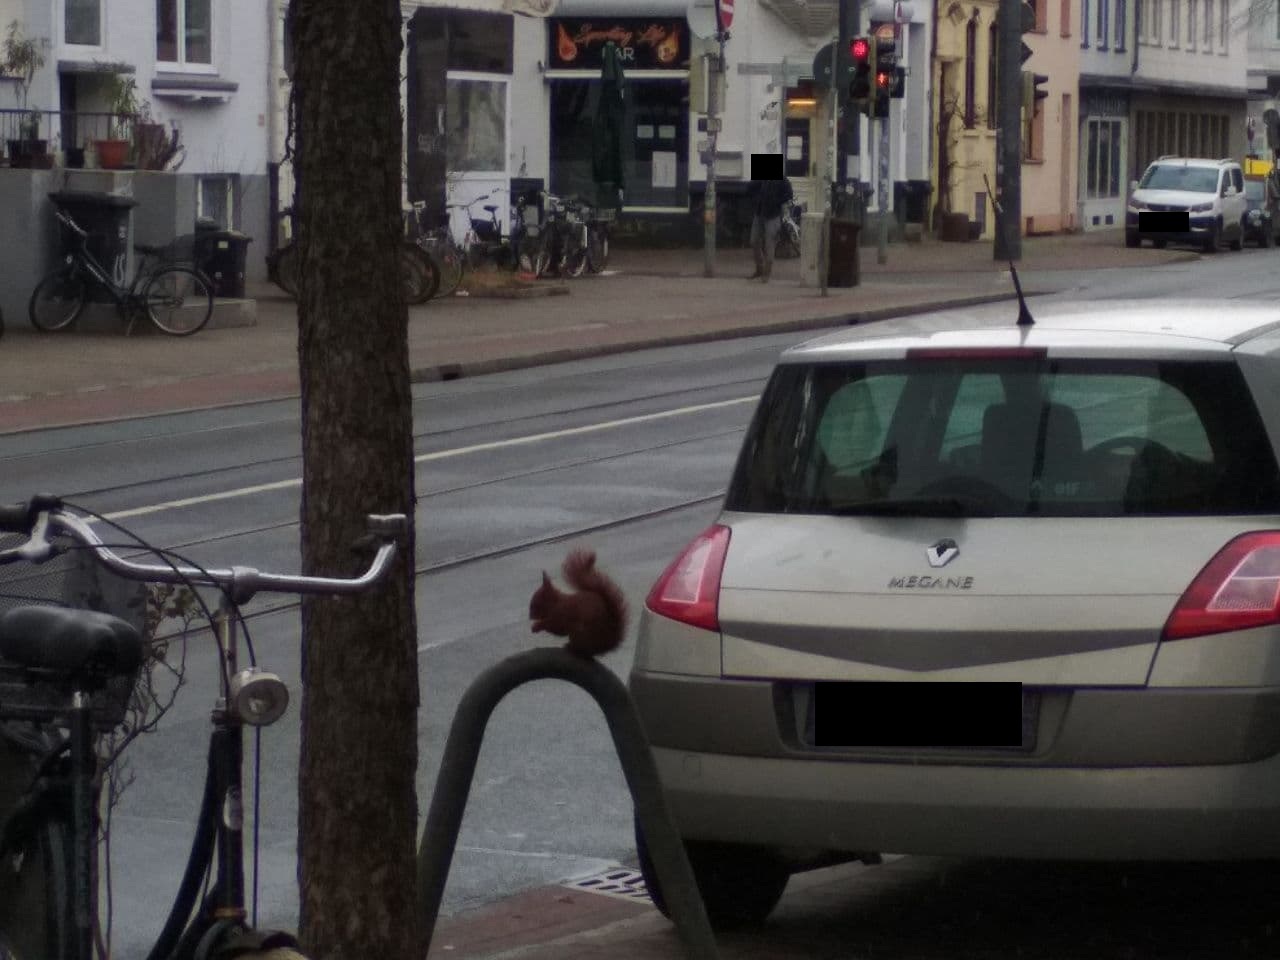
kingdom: Animalia
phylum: Chordata
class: Mammalia
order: Rodentia
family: Sciuridae
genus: Sciurus
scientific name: Sciurus vulgaris
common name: Eurasian red squirrel
